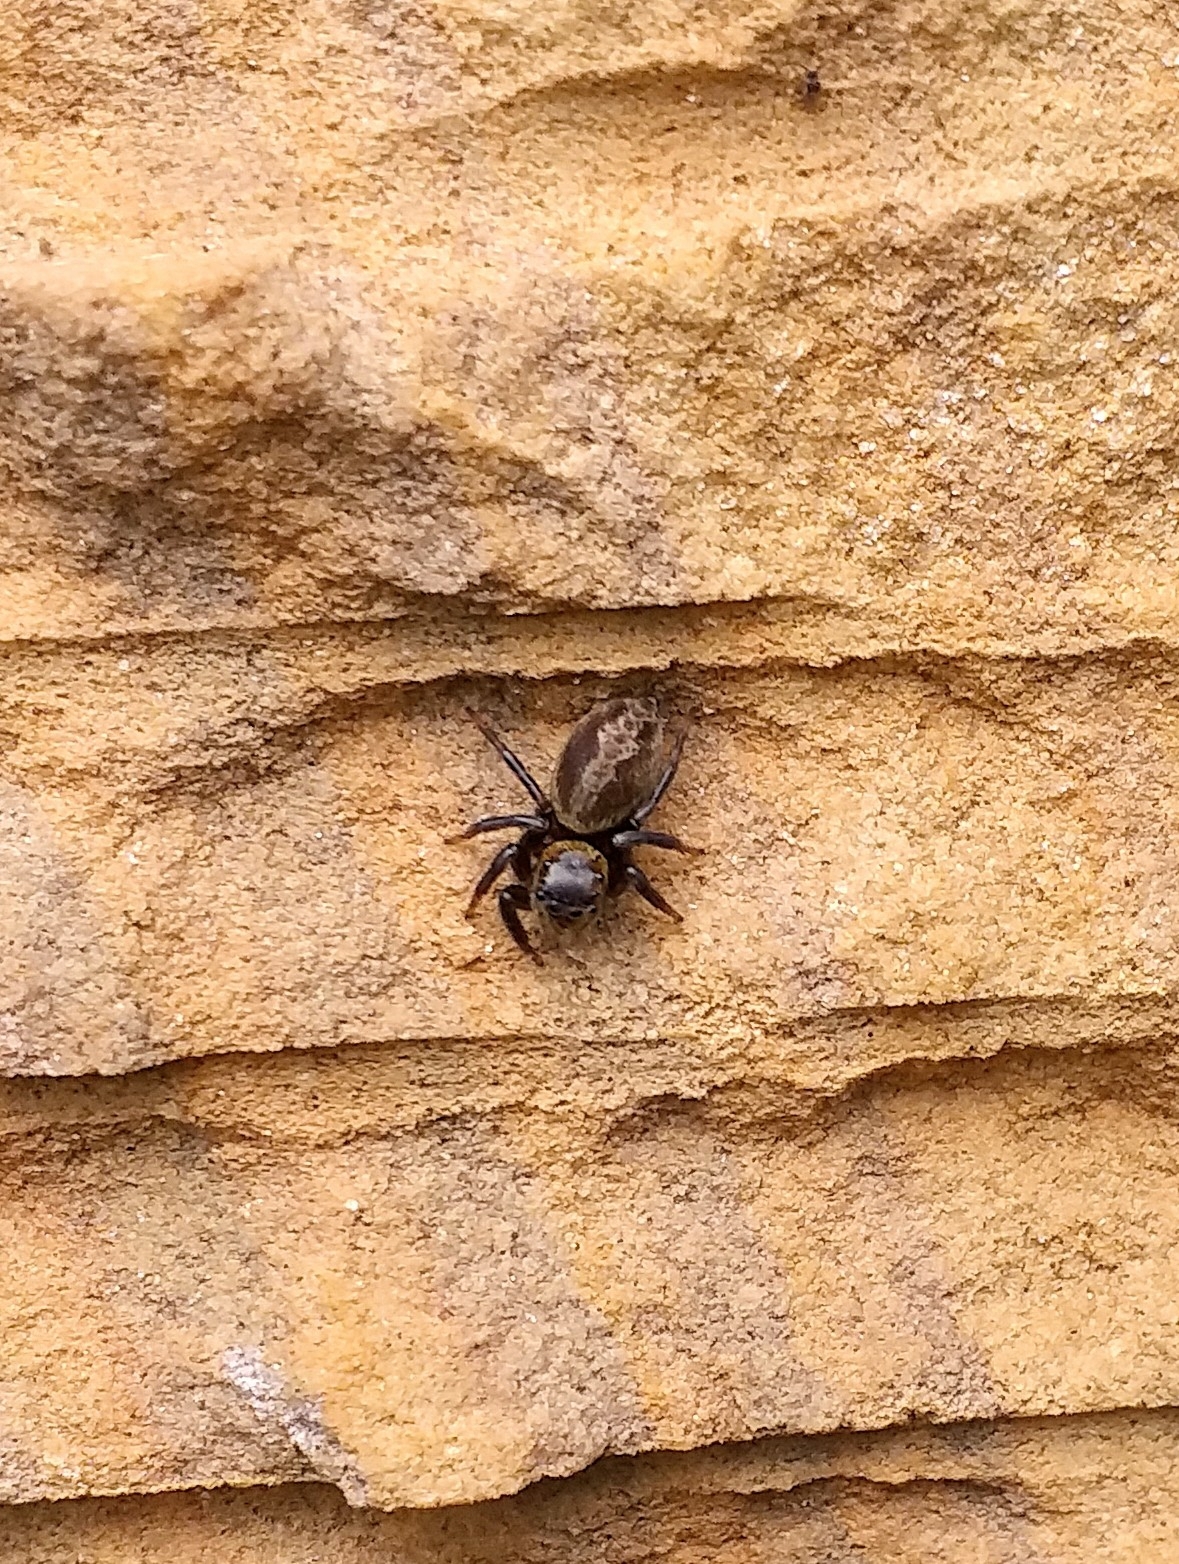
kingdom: Animalia
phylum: Arthropoda
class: Arachnida
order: Araneae
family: Salticidae
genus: Hasarius
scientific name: Hasarius adansoni
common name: Jumping spider
